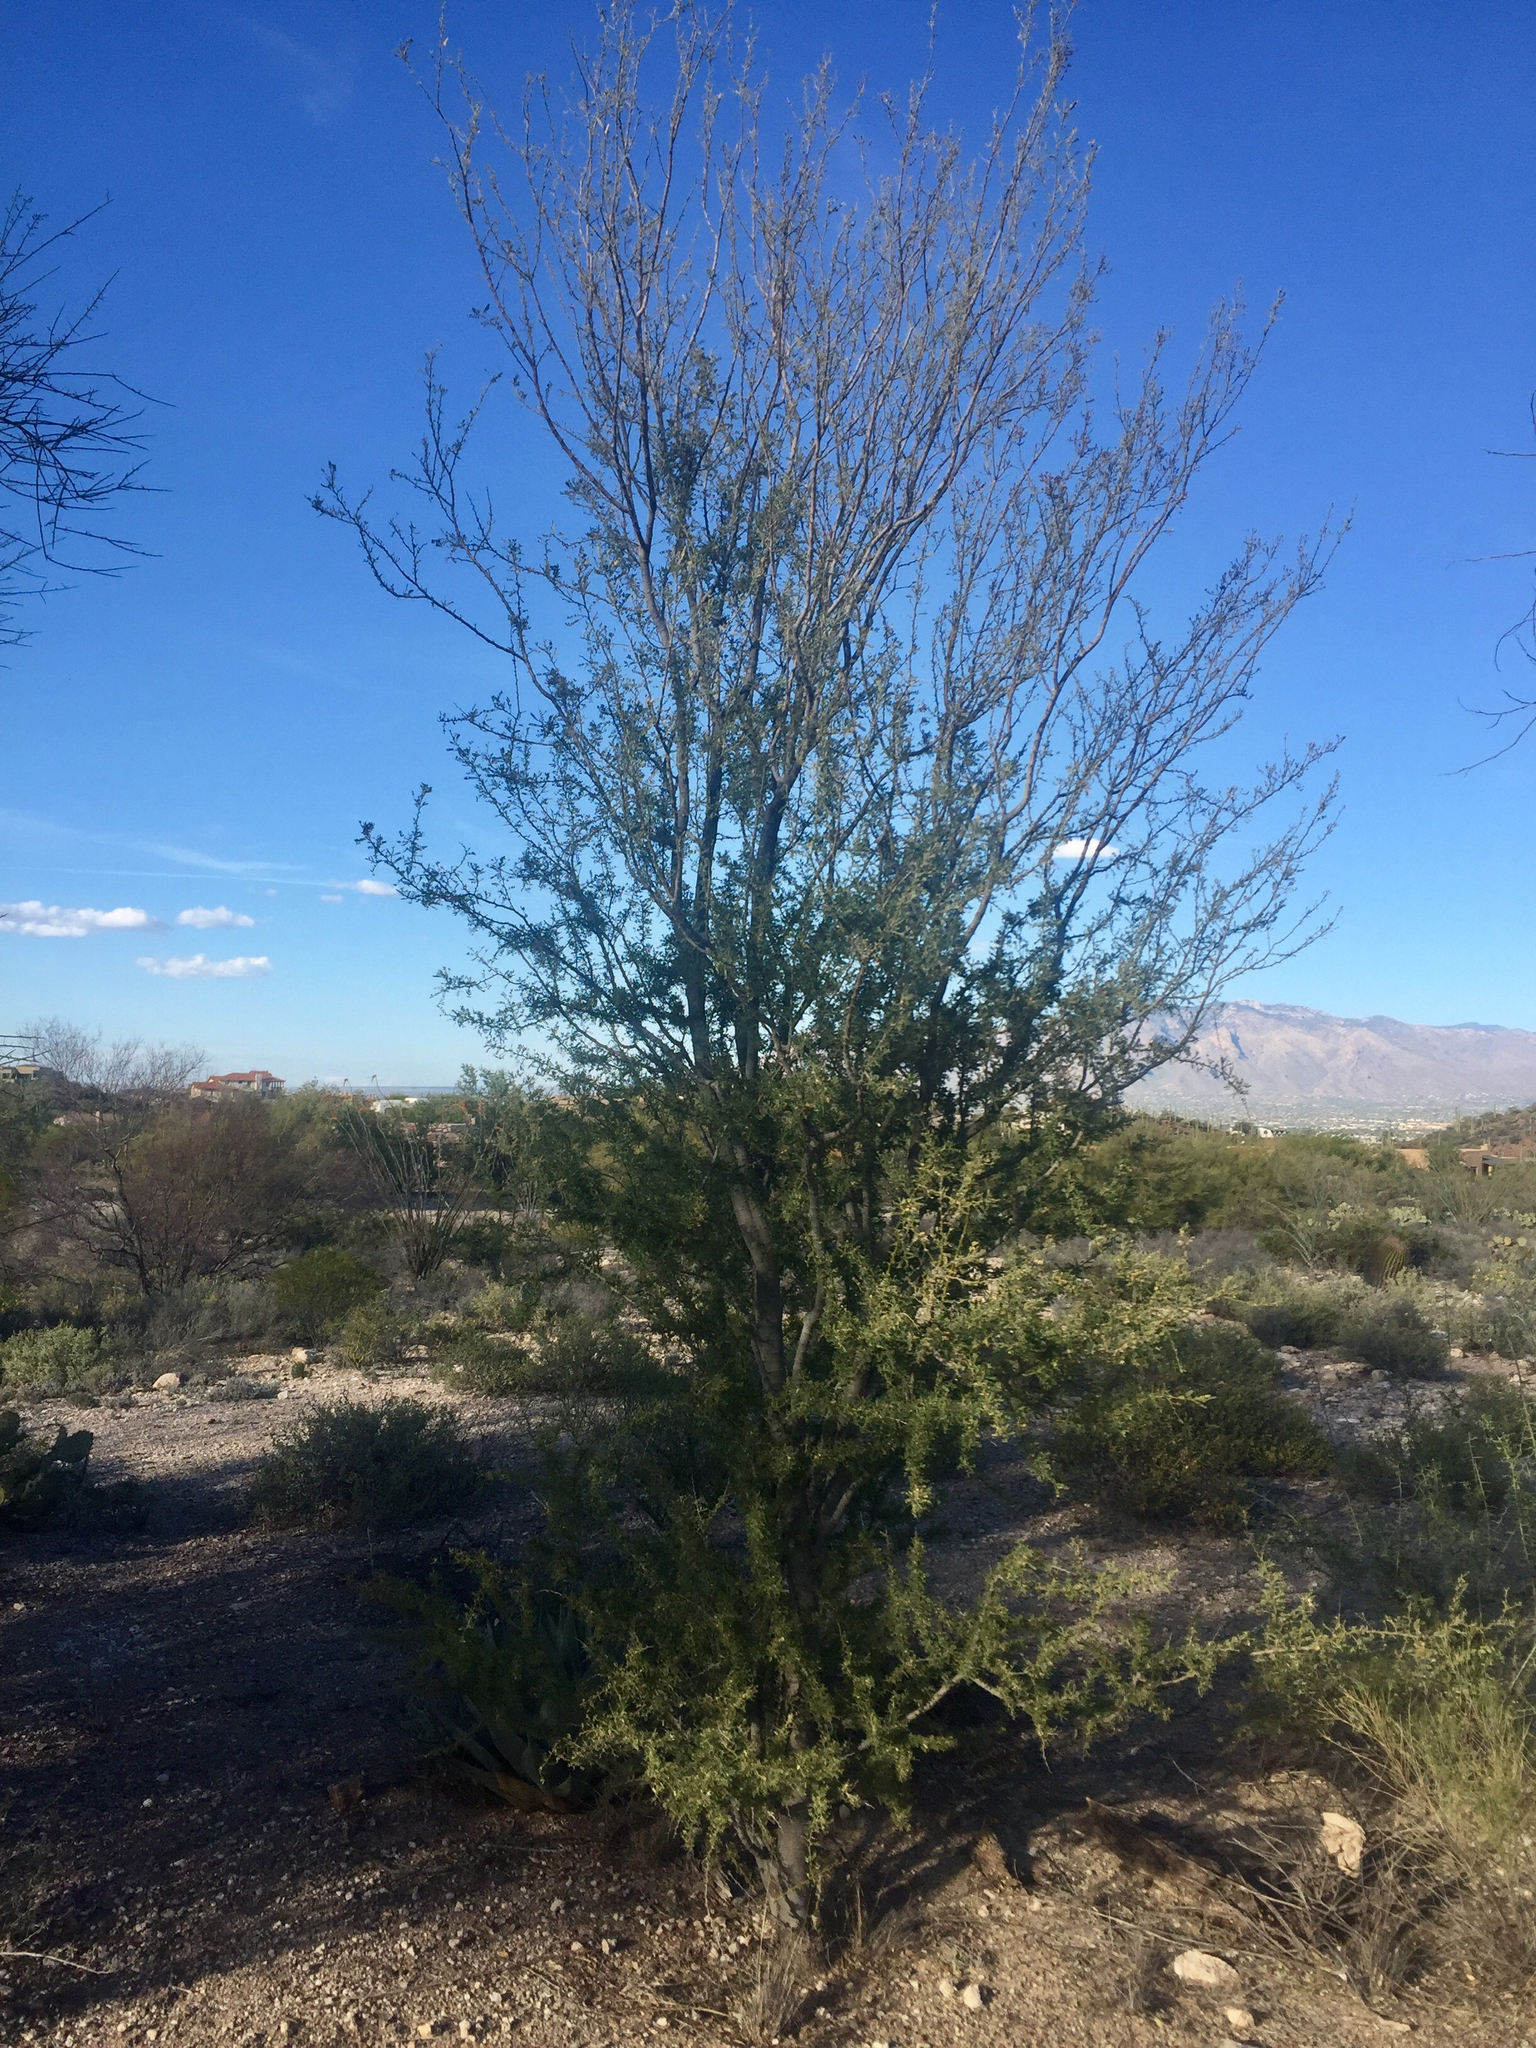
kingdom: Plantae
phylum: Tracheophyta
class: Magnoliopsida
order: Fabales
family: Fabaceae
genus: Olneya
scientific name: Olneya tesota
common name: Desert ironwood
